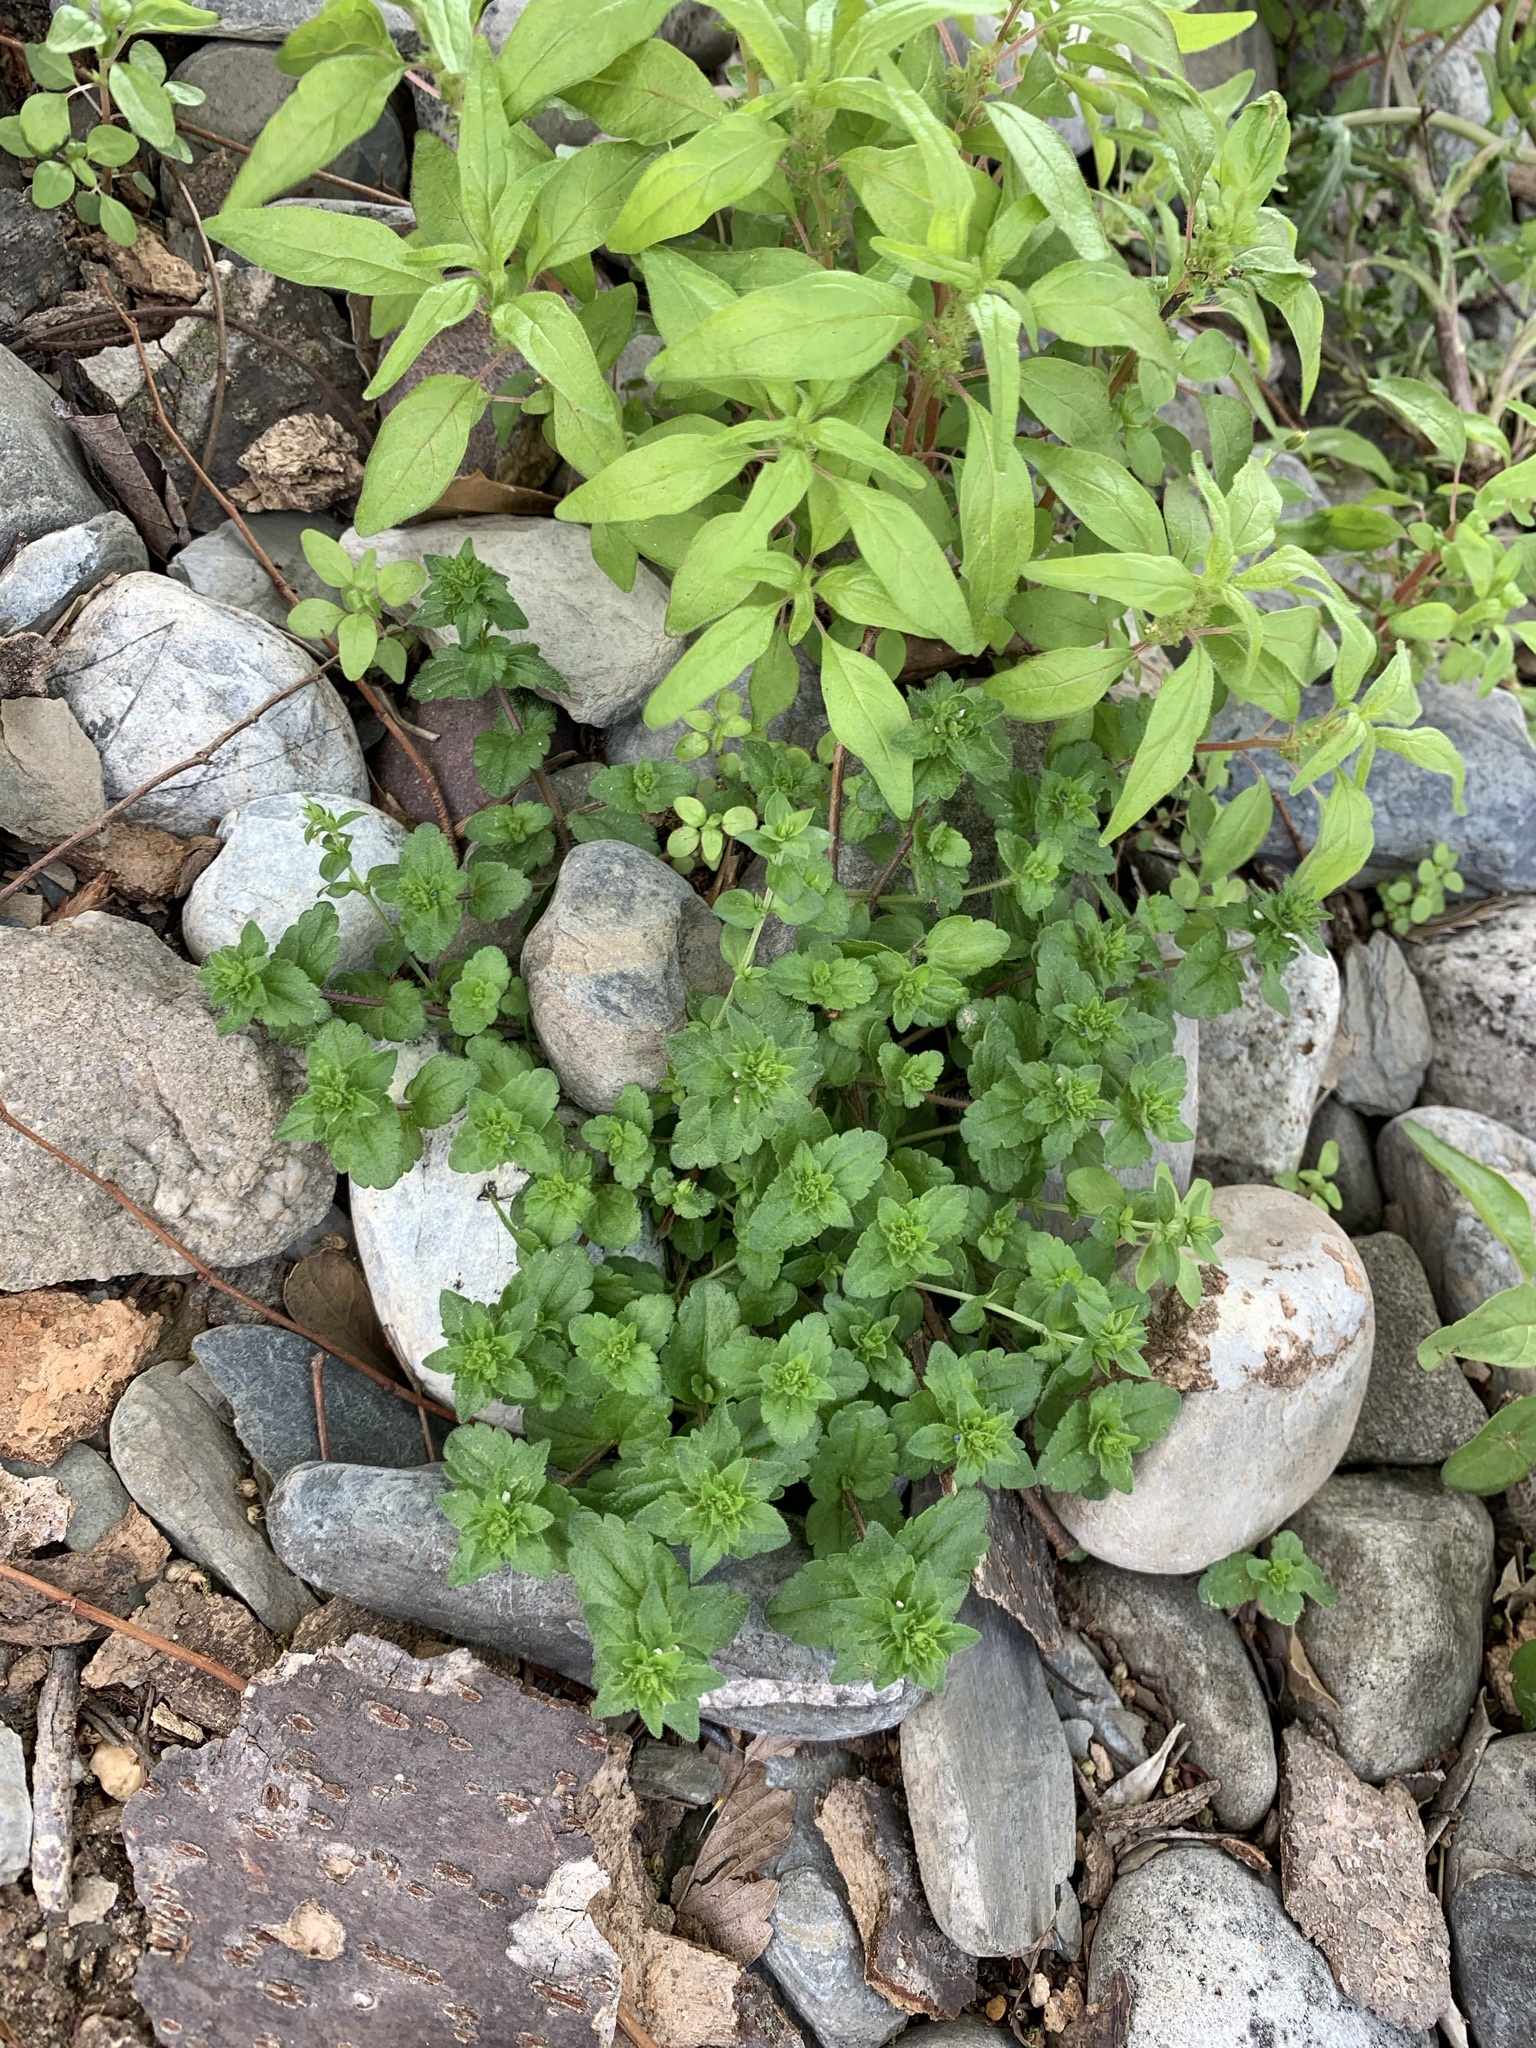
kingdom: Plantae
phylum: Tracheophyta
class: Magnoliopsida
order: Lamiales
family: Plantaginaceae
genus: Veronica
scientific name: Veronica arvensis
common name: Corn speedwell
